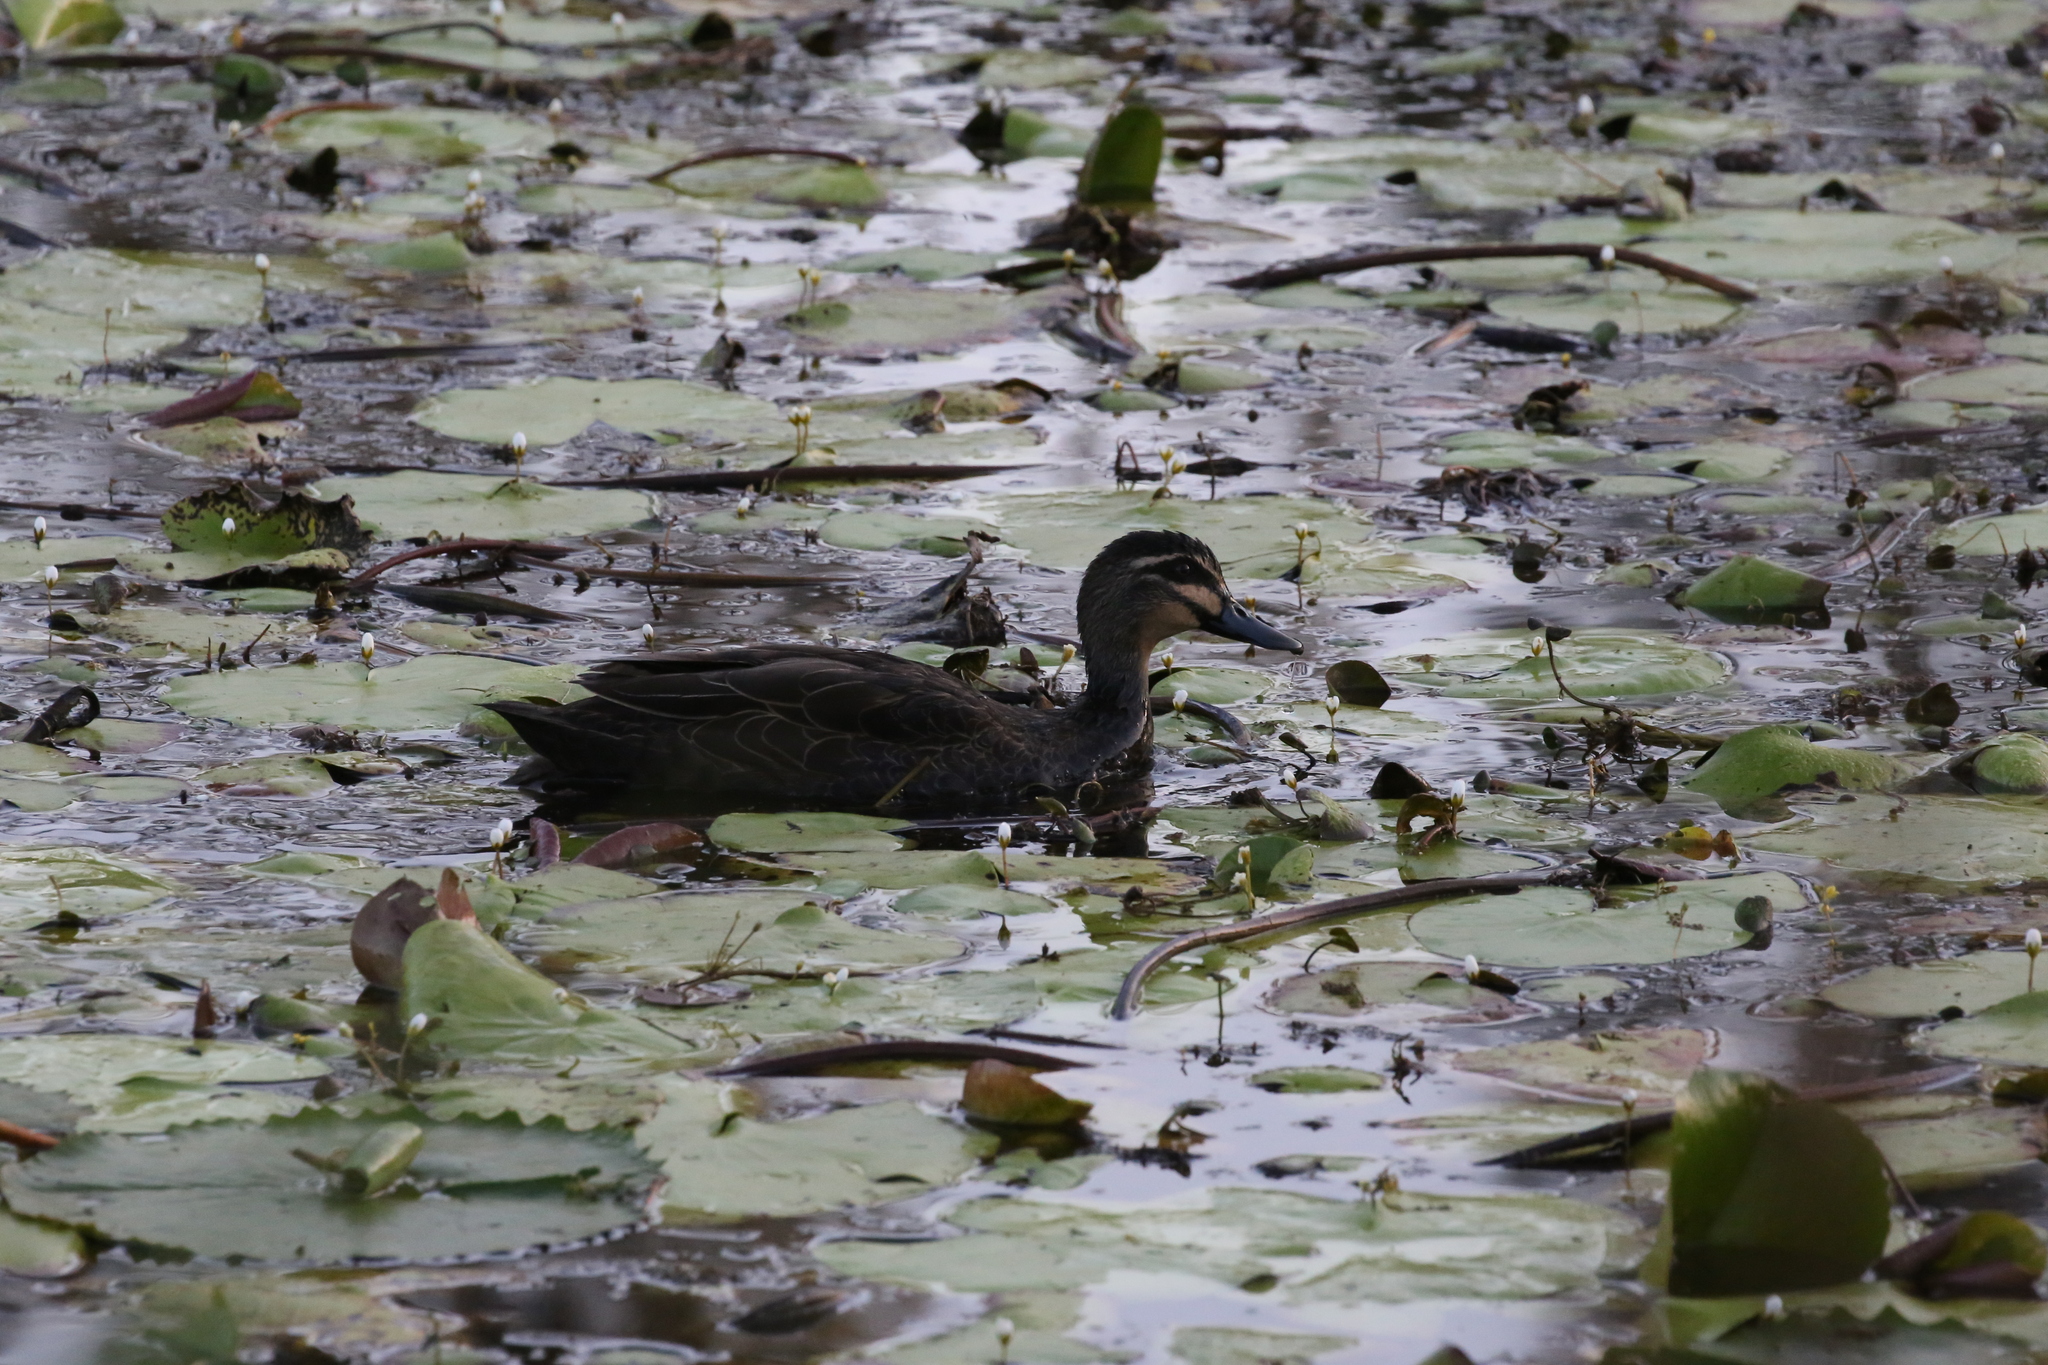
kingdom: Animalia
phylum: Chordata
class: Aves
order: Anseriformes
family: Anatidae
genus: Anas
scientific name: Anas superciliosa
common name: Pacific black duck
